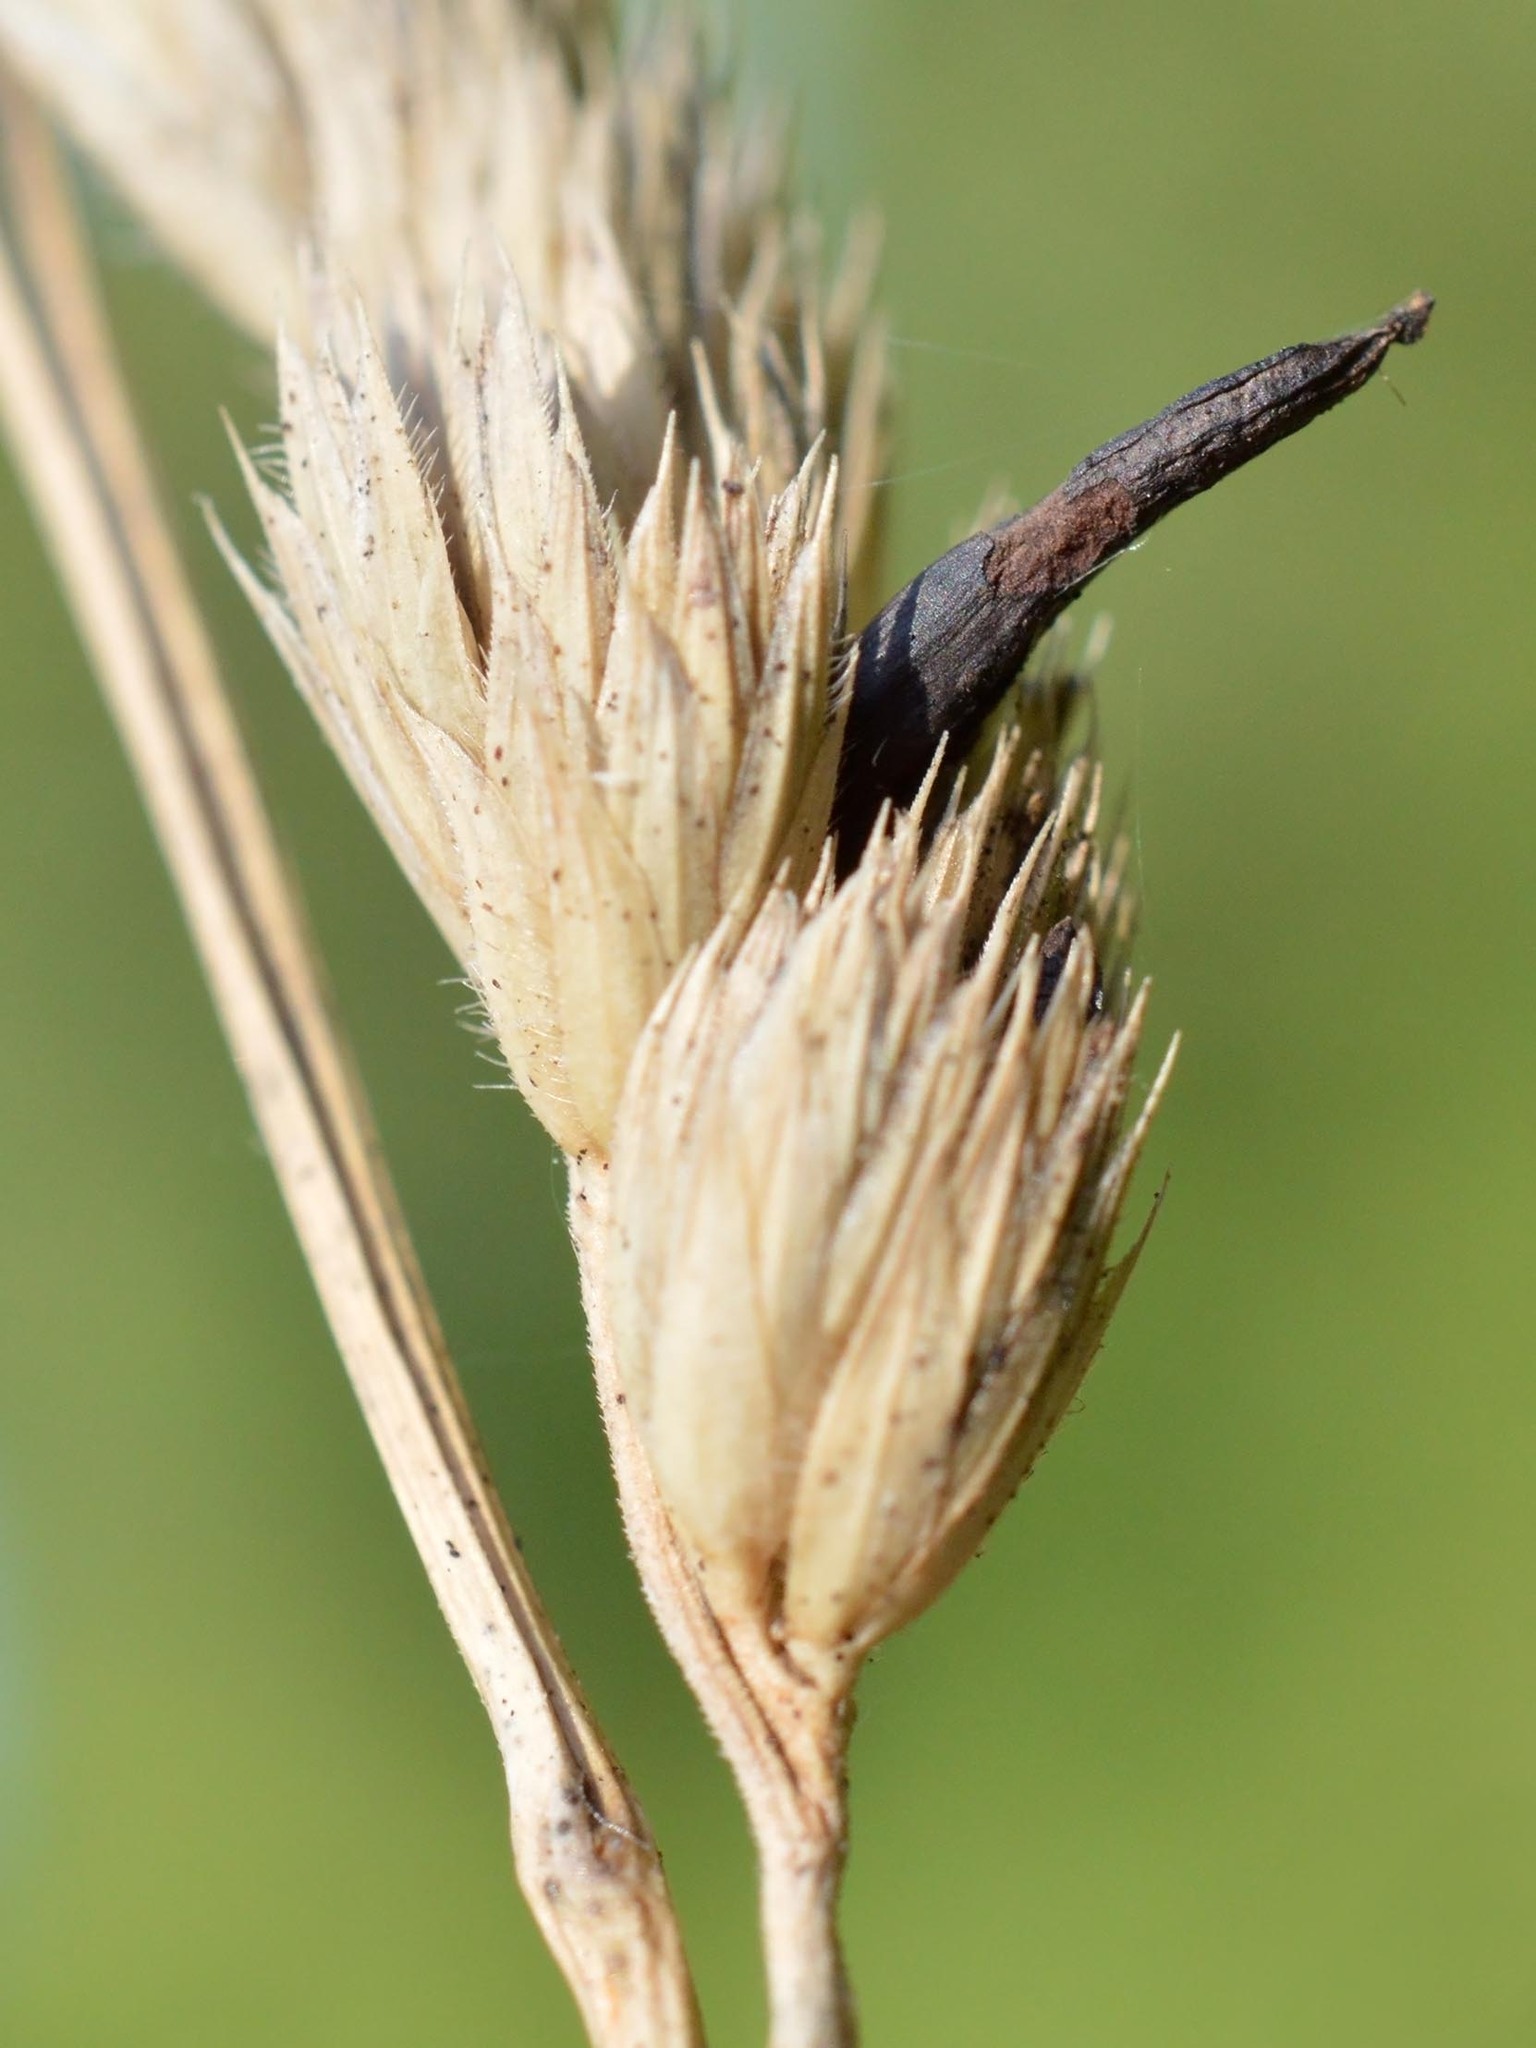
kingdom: Plantae
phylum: Tracheophyta
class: Liliopsida
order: Poales
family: Poaceae
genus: Dactylis
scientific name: Dactylis glomerata
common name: Orchardgrass
